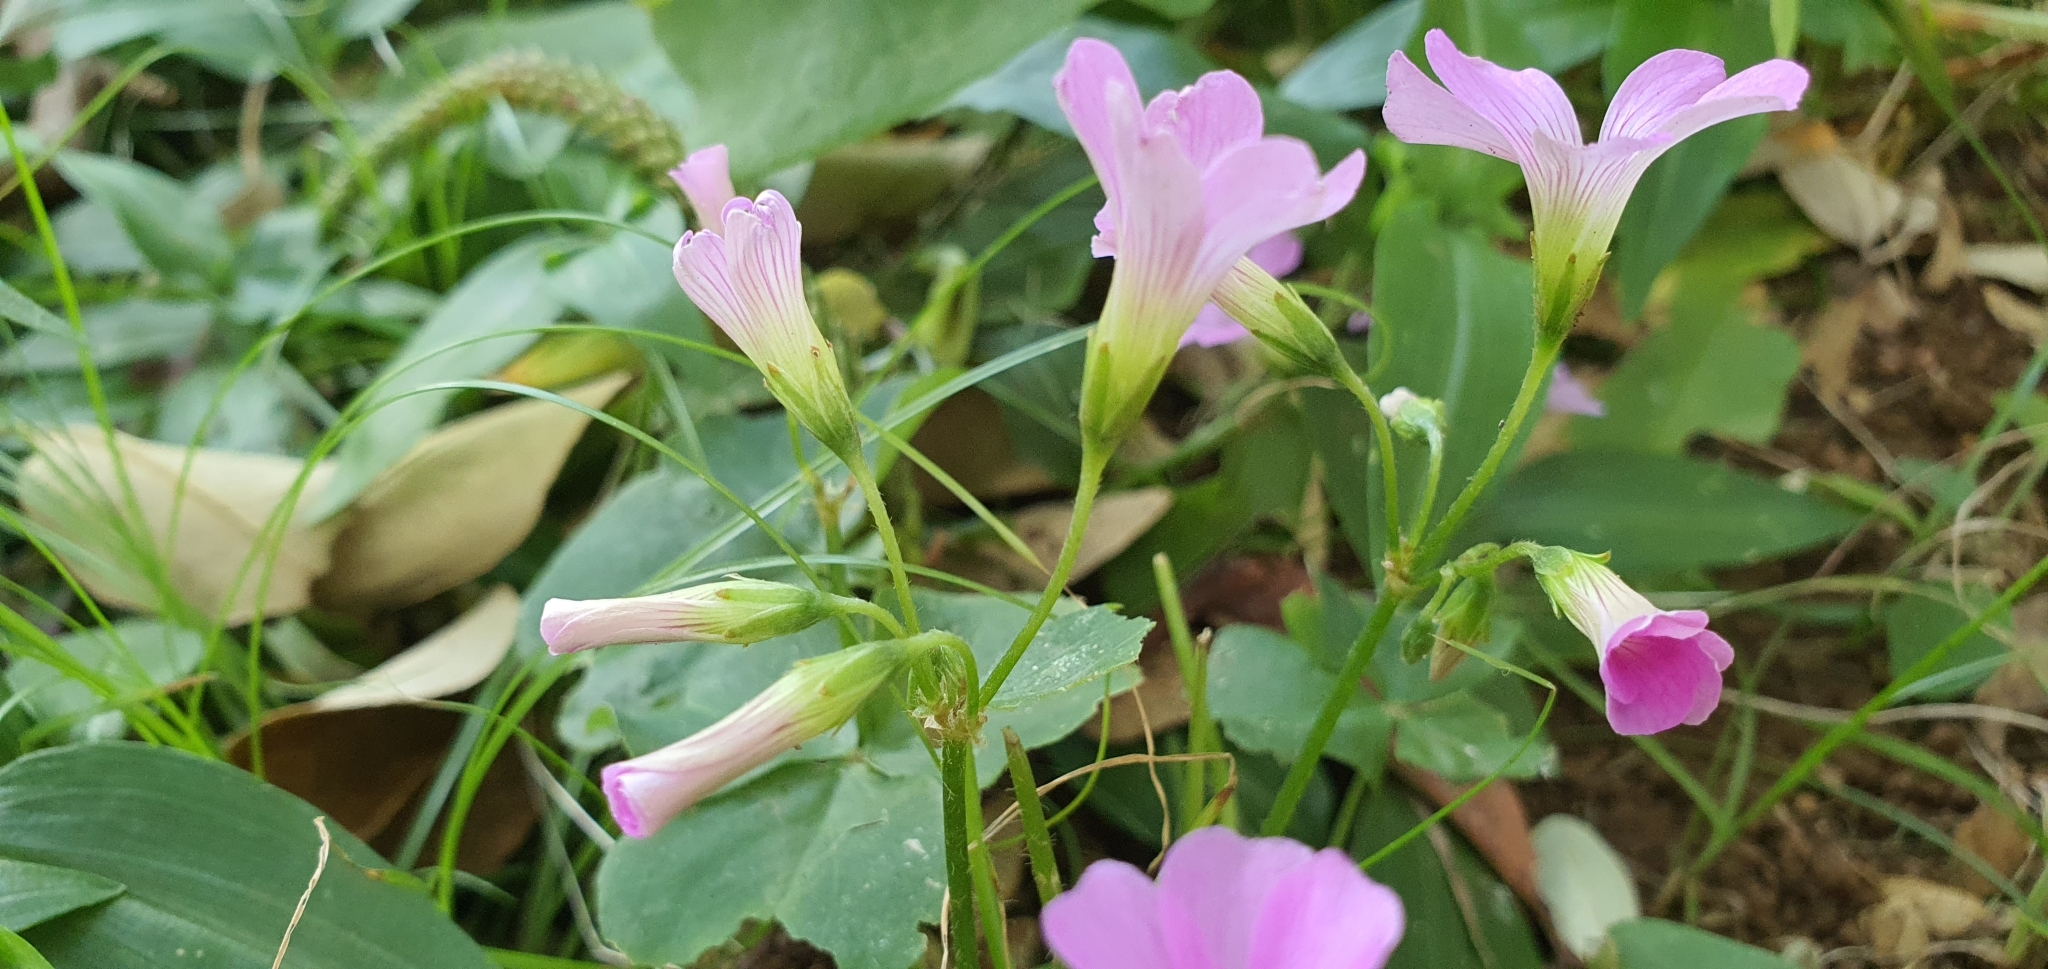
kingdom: Plantae
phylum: Tracheophyta
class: Magnoliopsida
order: Oxalidales
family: Oxalidaceae
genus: Oxalis
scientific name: Oxalis debilis
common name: Large-flowered pink-sorrel
